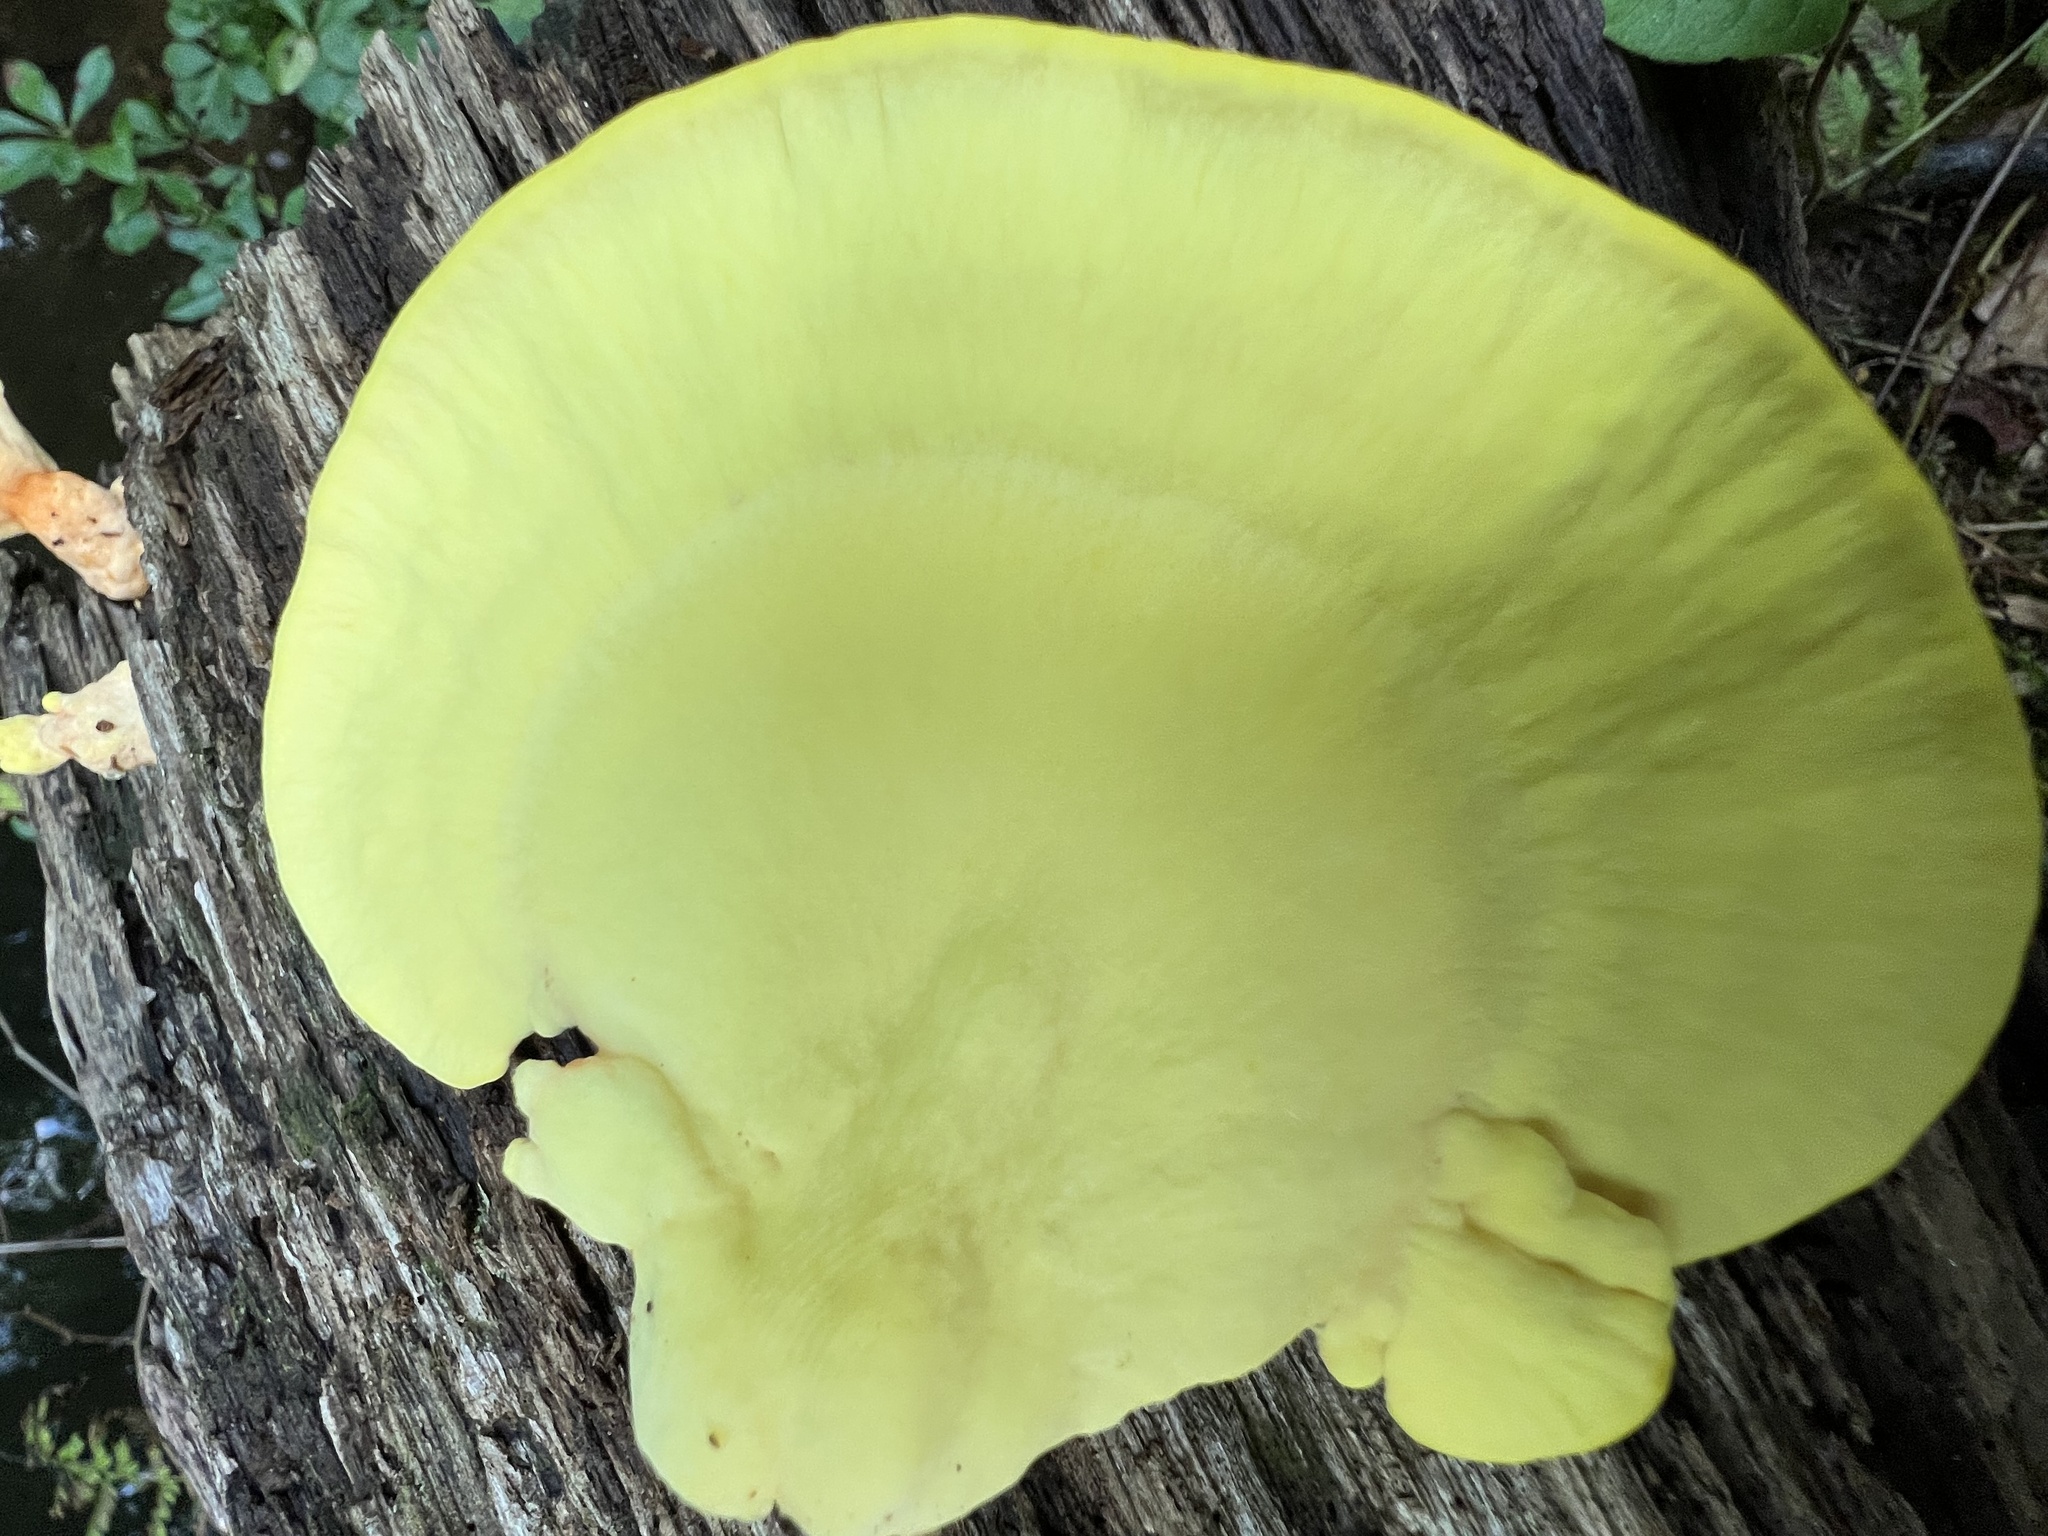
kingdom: Fungi
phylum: Basidiomycota
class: Agaricomycetes
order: Polyporales
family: Laetiporaceae
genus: Laetiporus
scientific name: Laetiporus sulphureus
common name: Chicken of the woods
